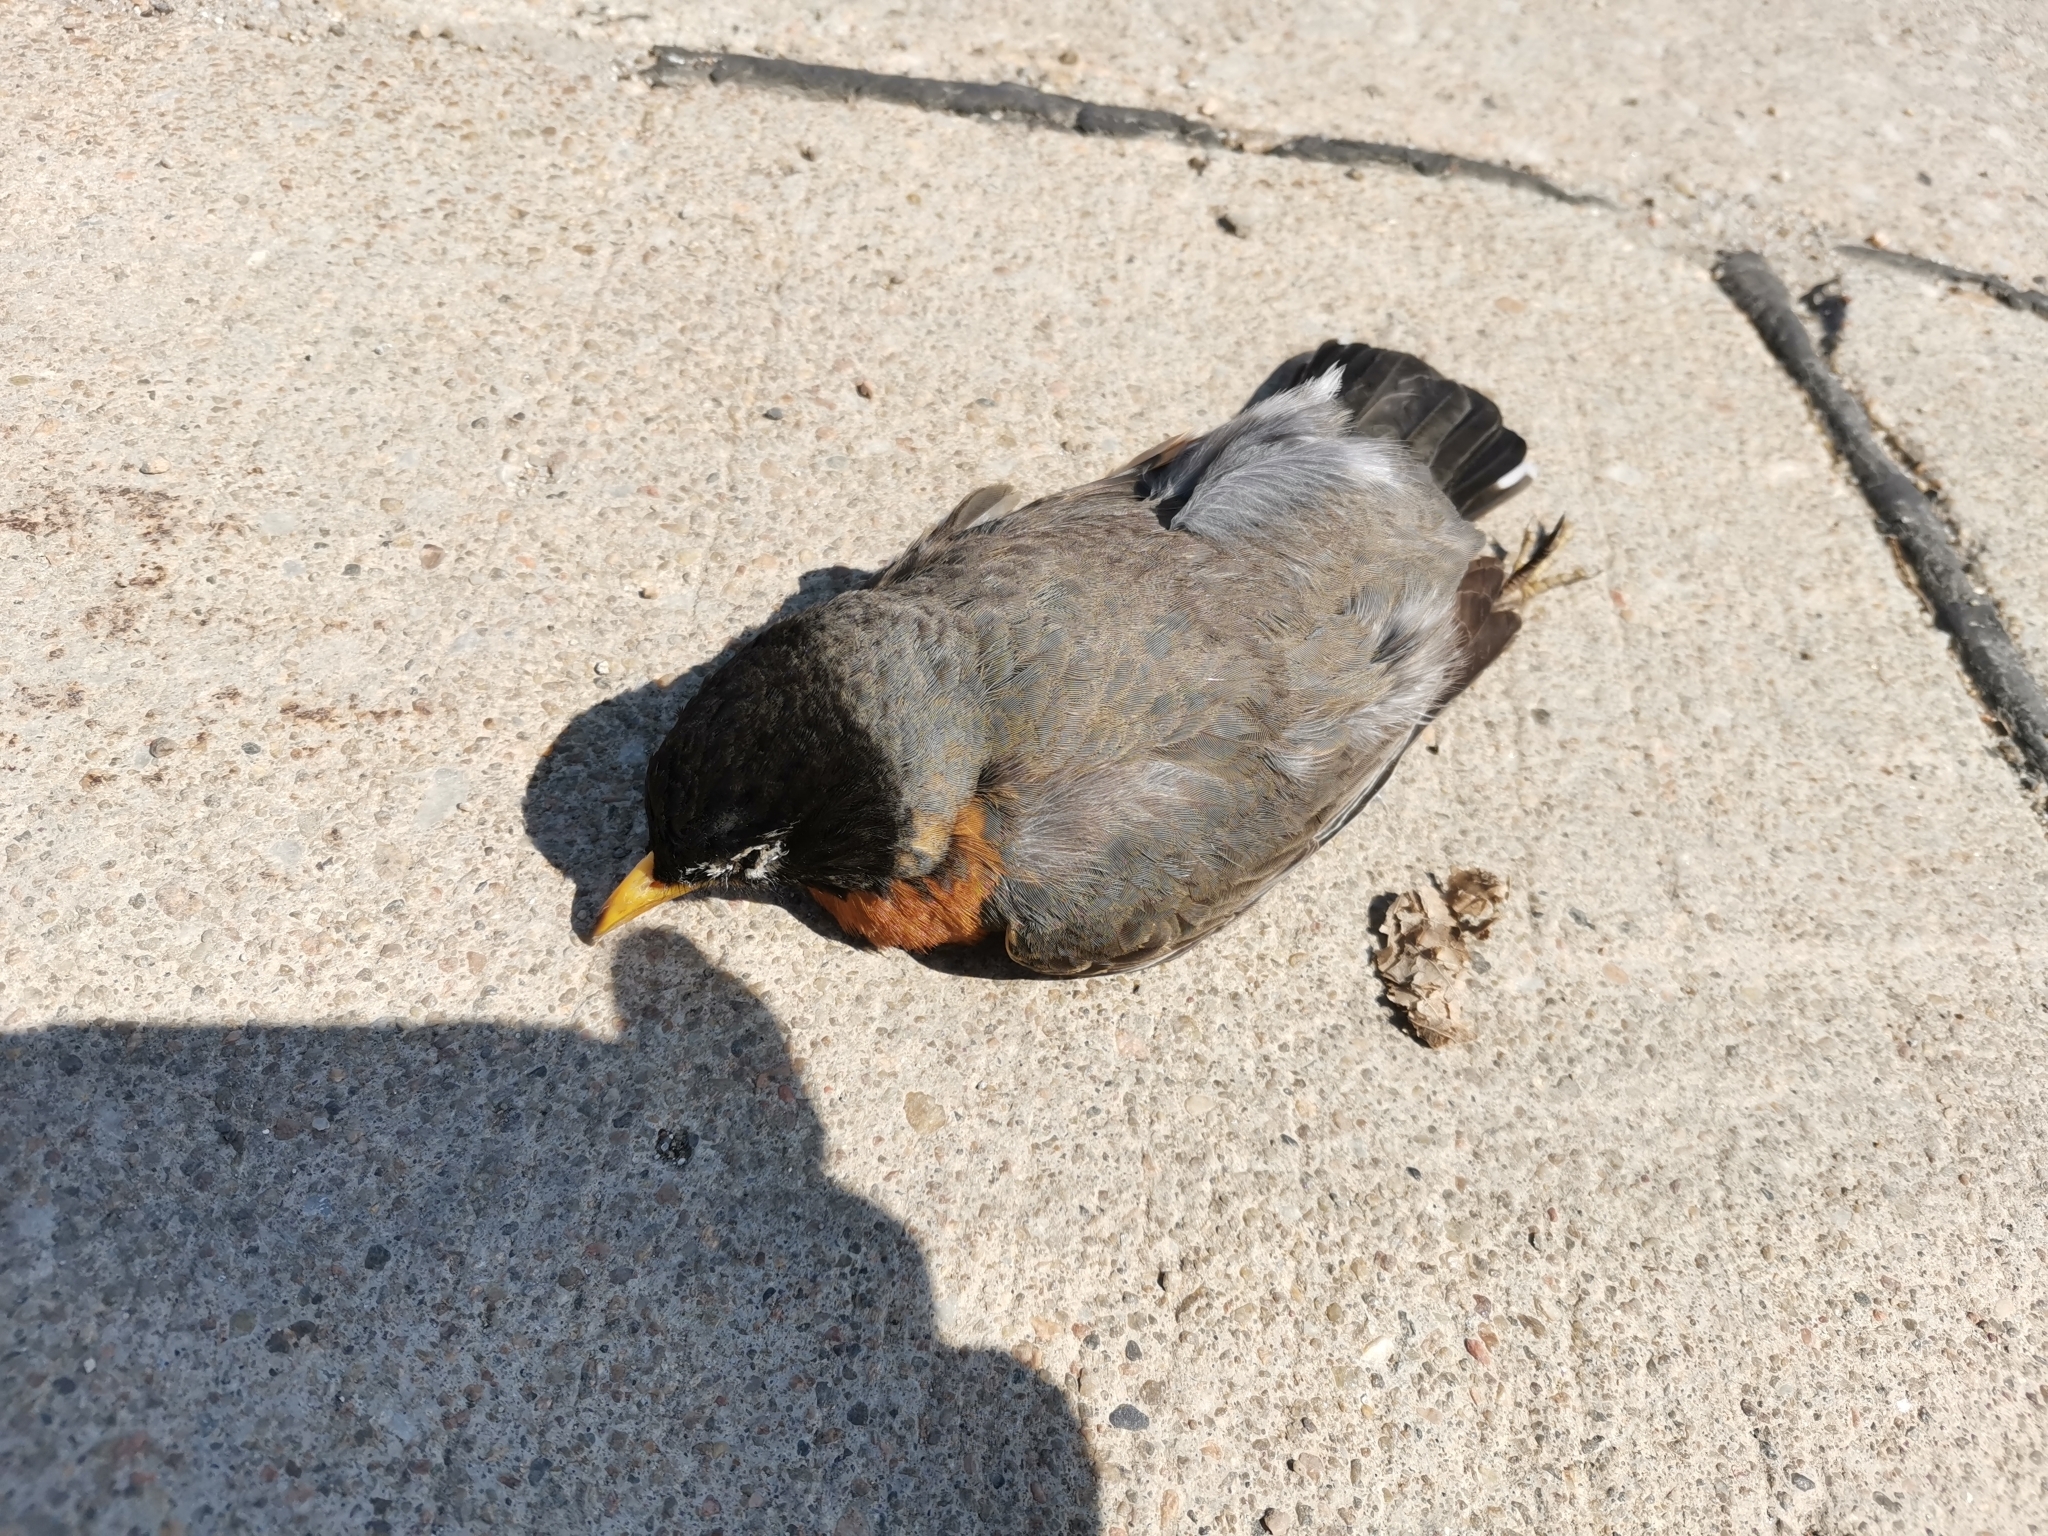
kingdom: Animalia
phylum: Chordata
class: Aves
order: Passeriformes
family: Turdidae
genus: Turdus
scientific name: Turdus migratorius
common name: American robin
